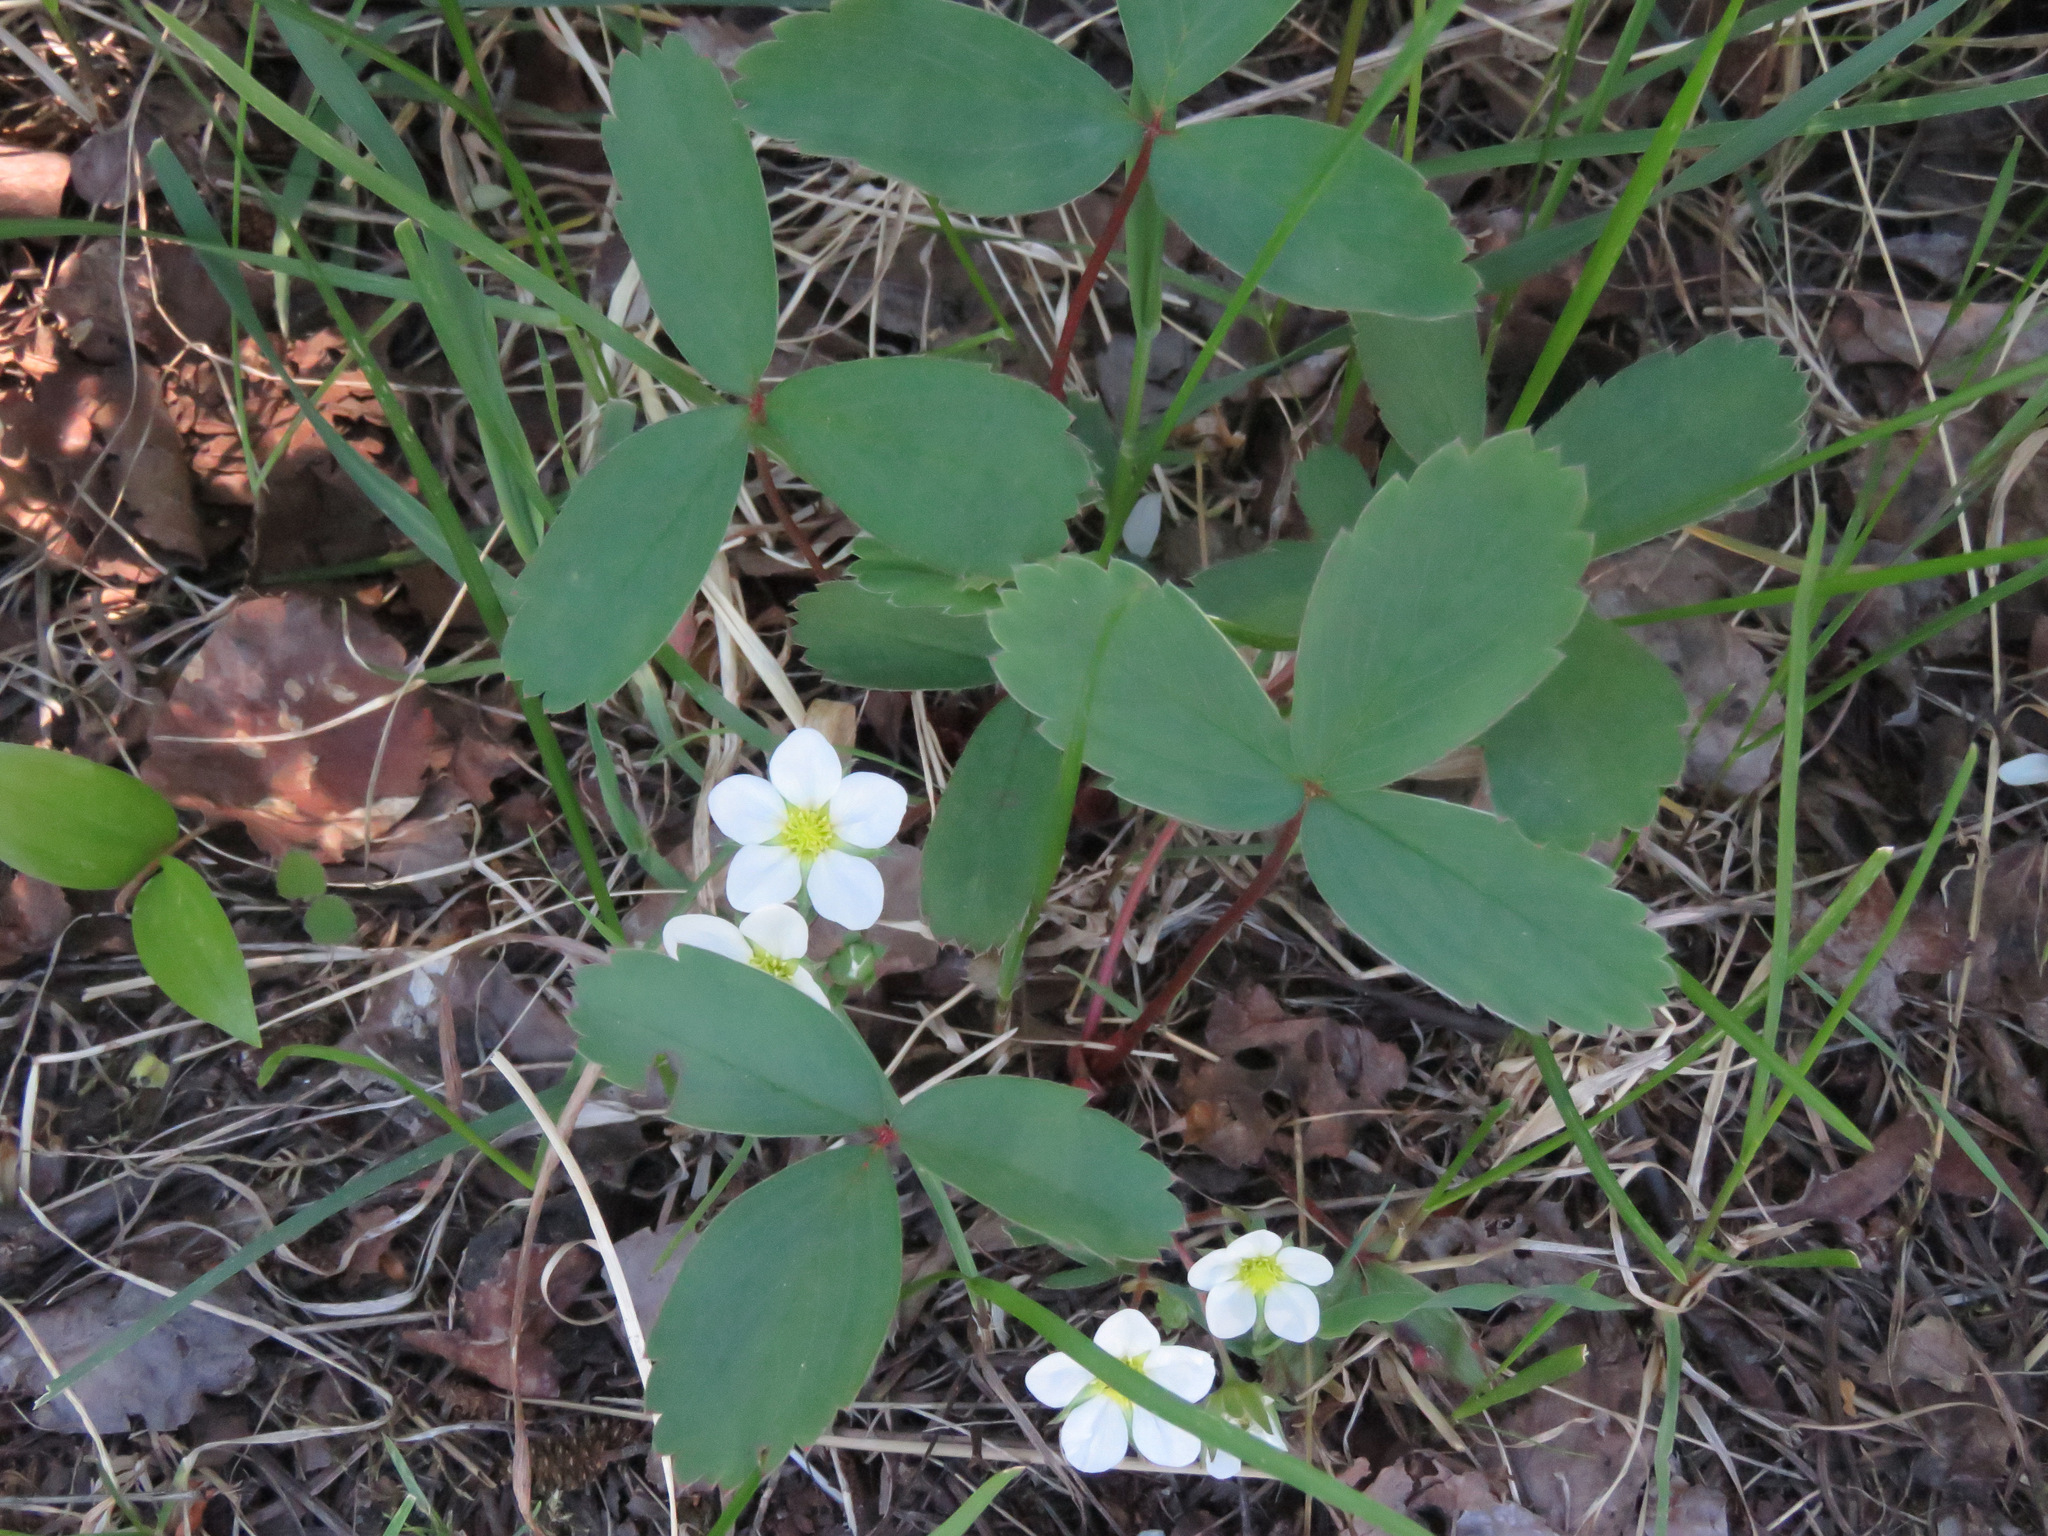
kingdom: Plantae
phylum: Tracheophyta
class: Magnoliopsida
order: Rosales
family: Rosaceae
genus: Fragaria
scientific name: Fragaria virginiana
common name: Thickleaved wild strawberry
